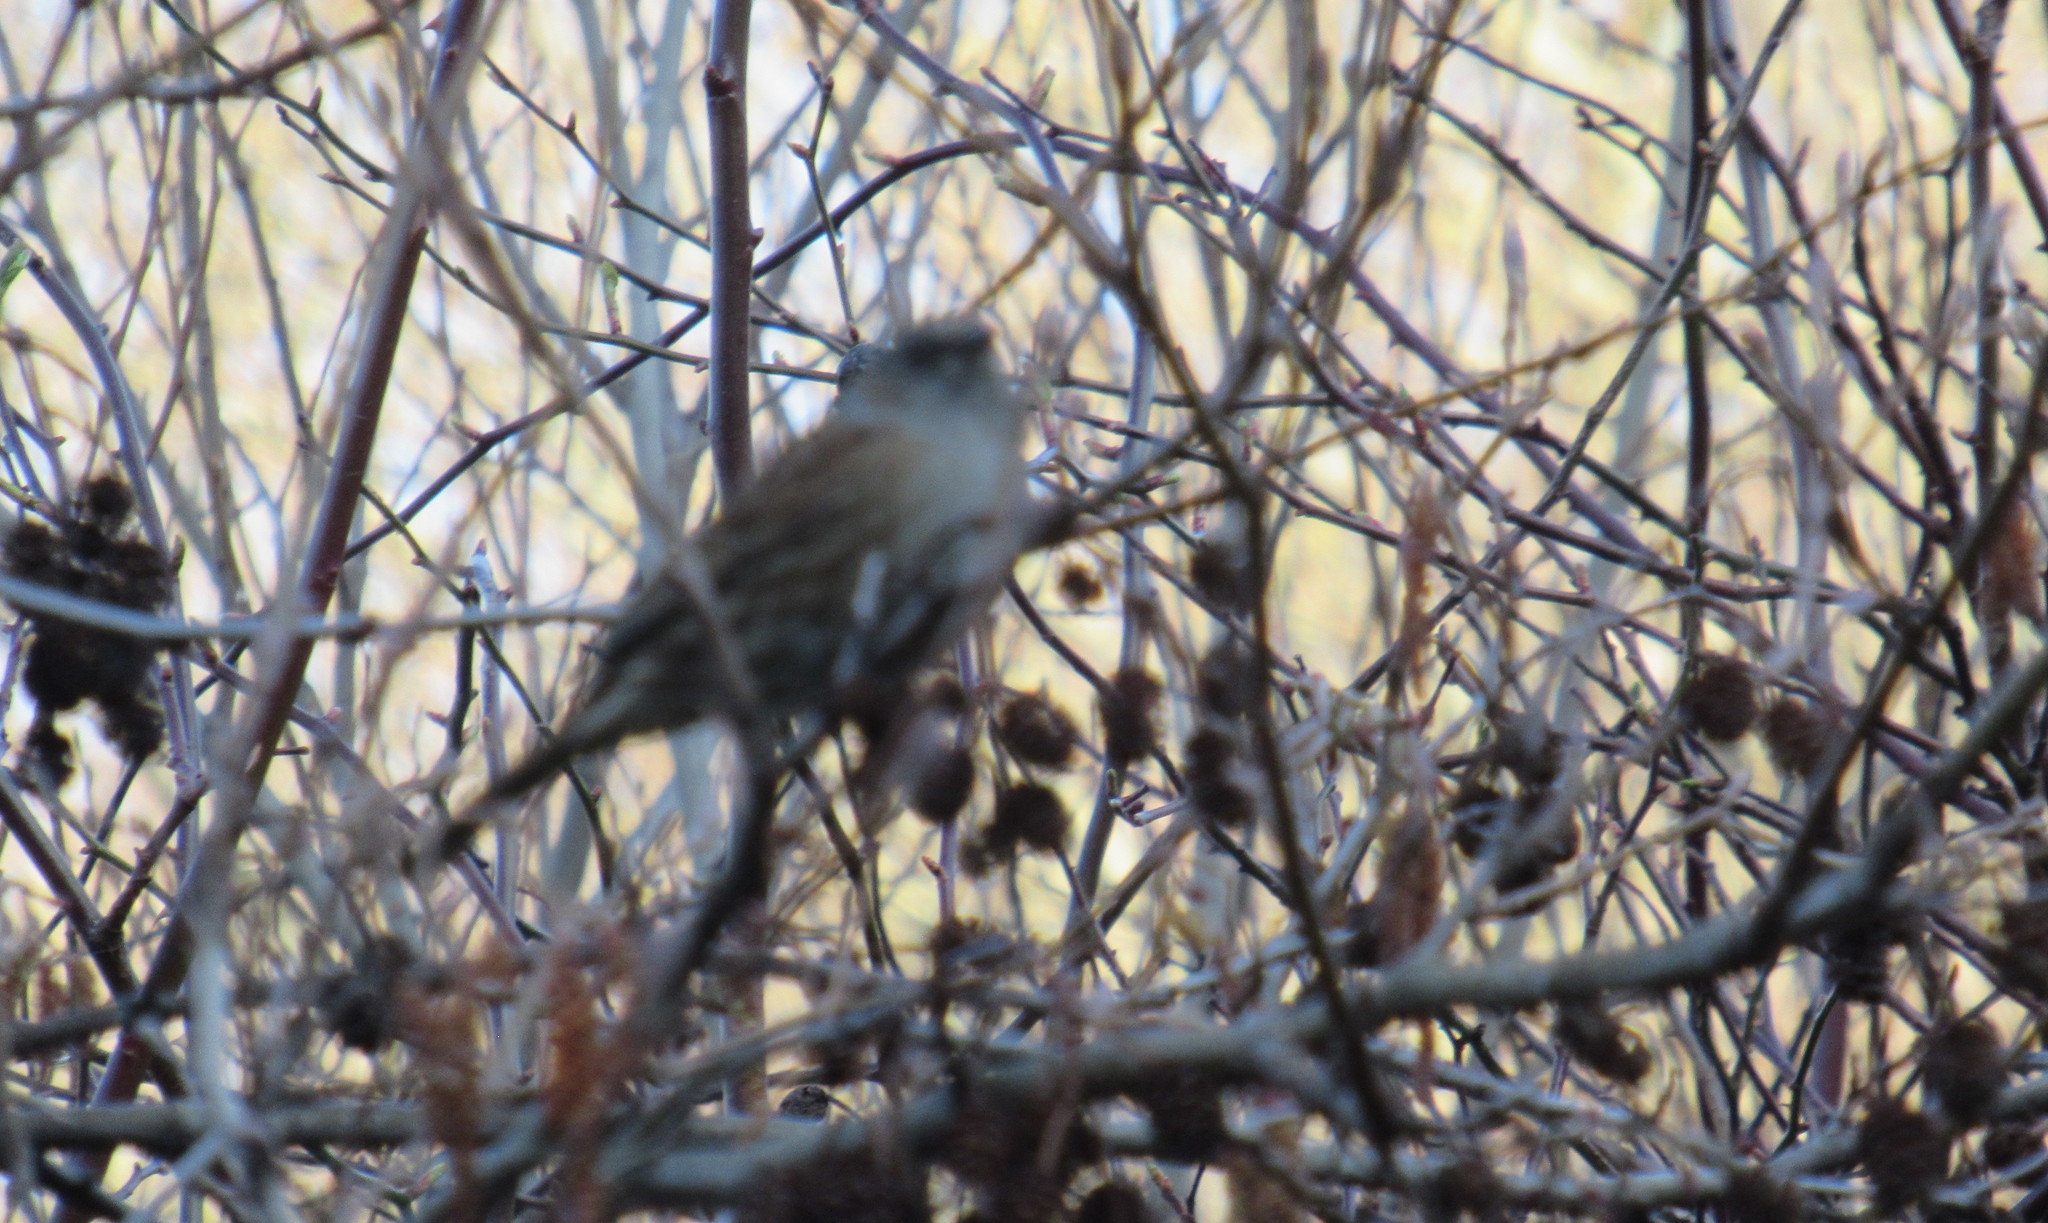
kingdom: Animalia
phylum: Chordata
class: Aves
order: Passeriformes
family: Prunellidae
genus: Prunella
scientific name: Prunella modularis
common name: Dunnock
